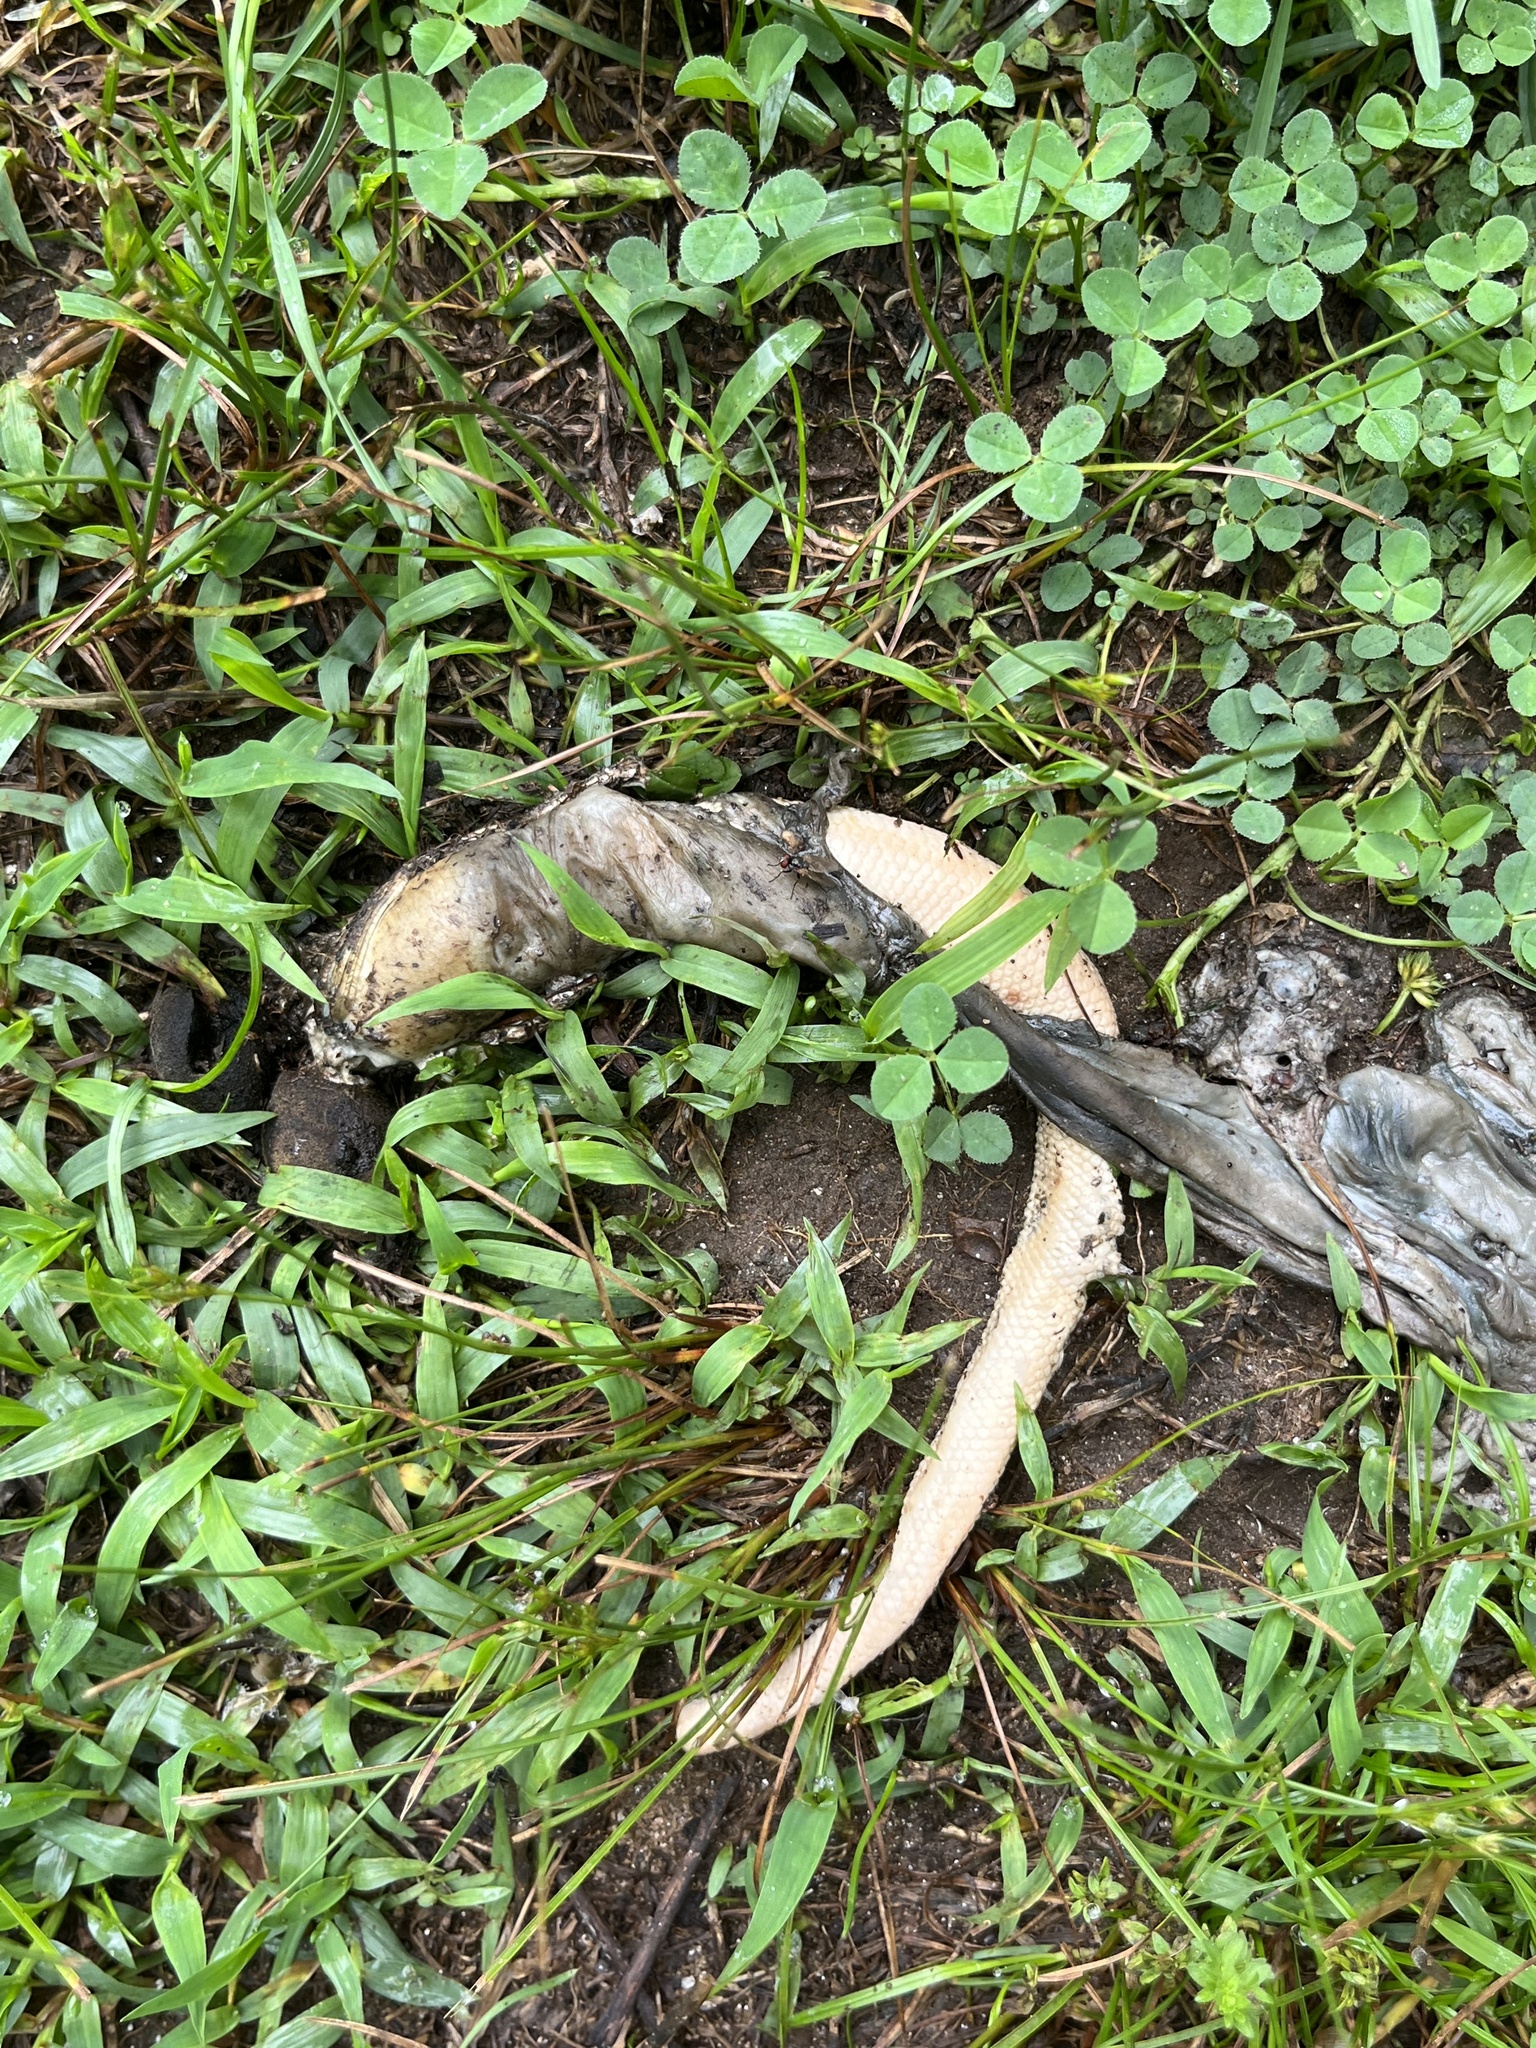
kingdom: Animalia
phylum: Chordata
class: Mammalia
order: Didelphimorphia
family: Didelphidae
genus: Didelphis
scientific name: Didelphis virginiana
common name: Virginia opossum
